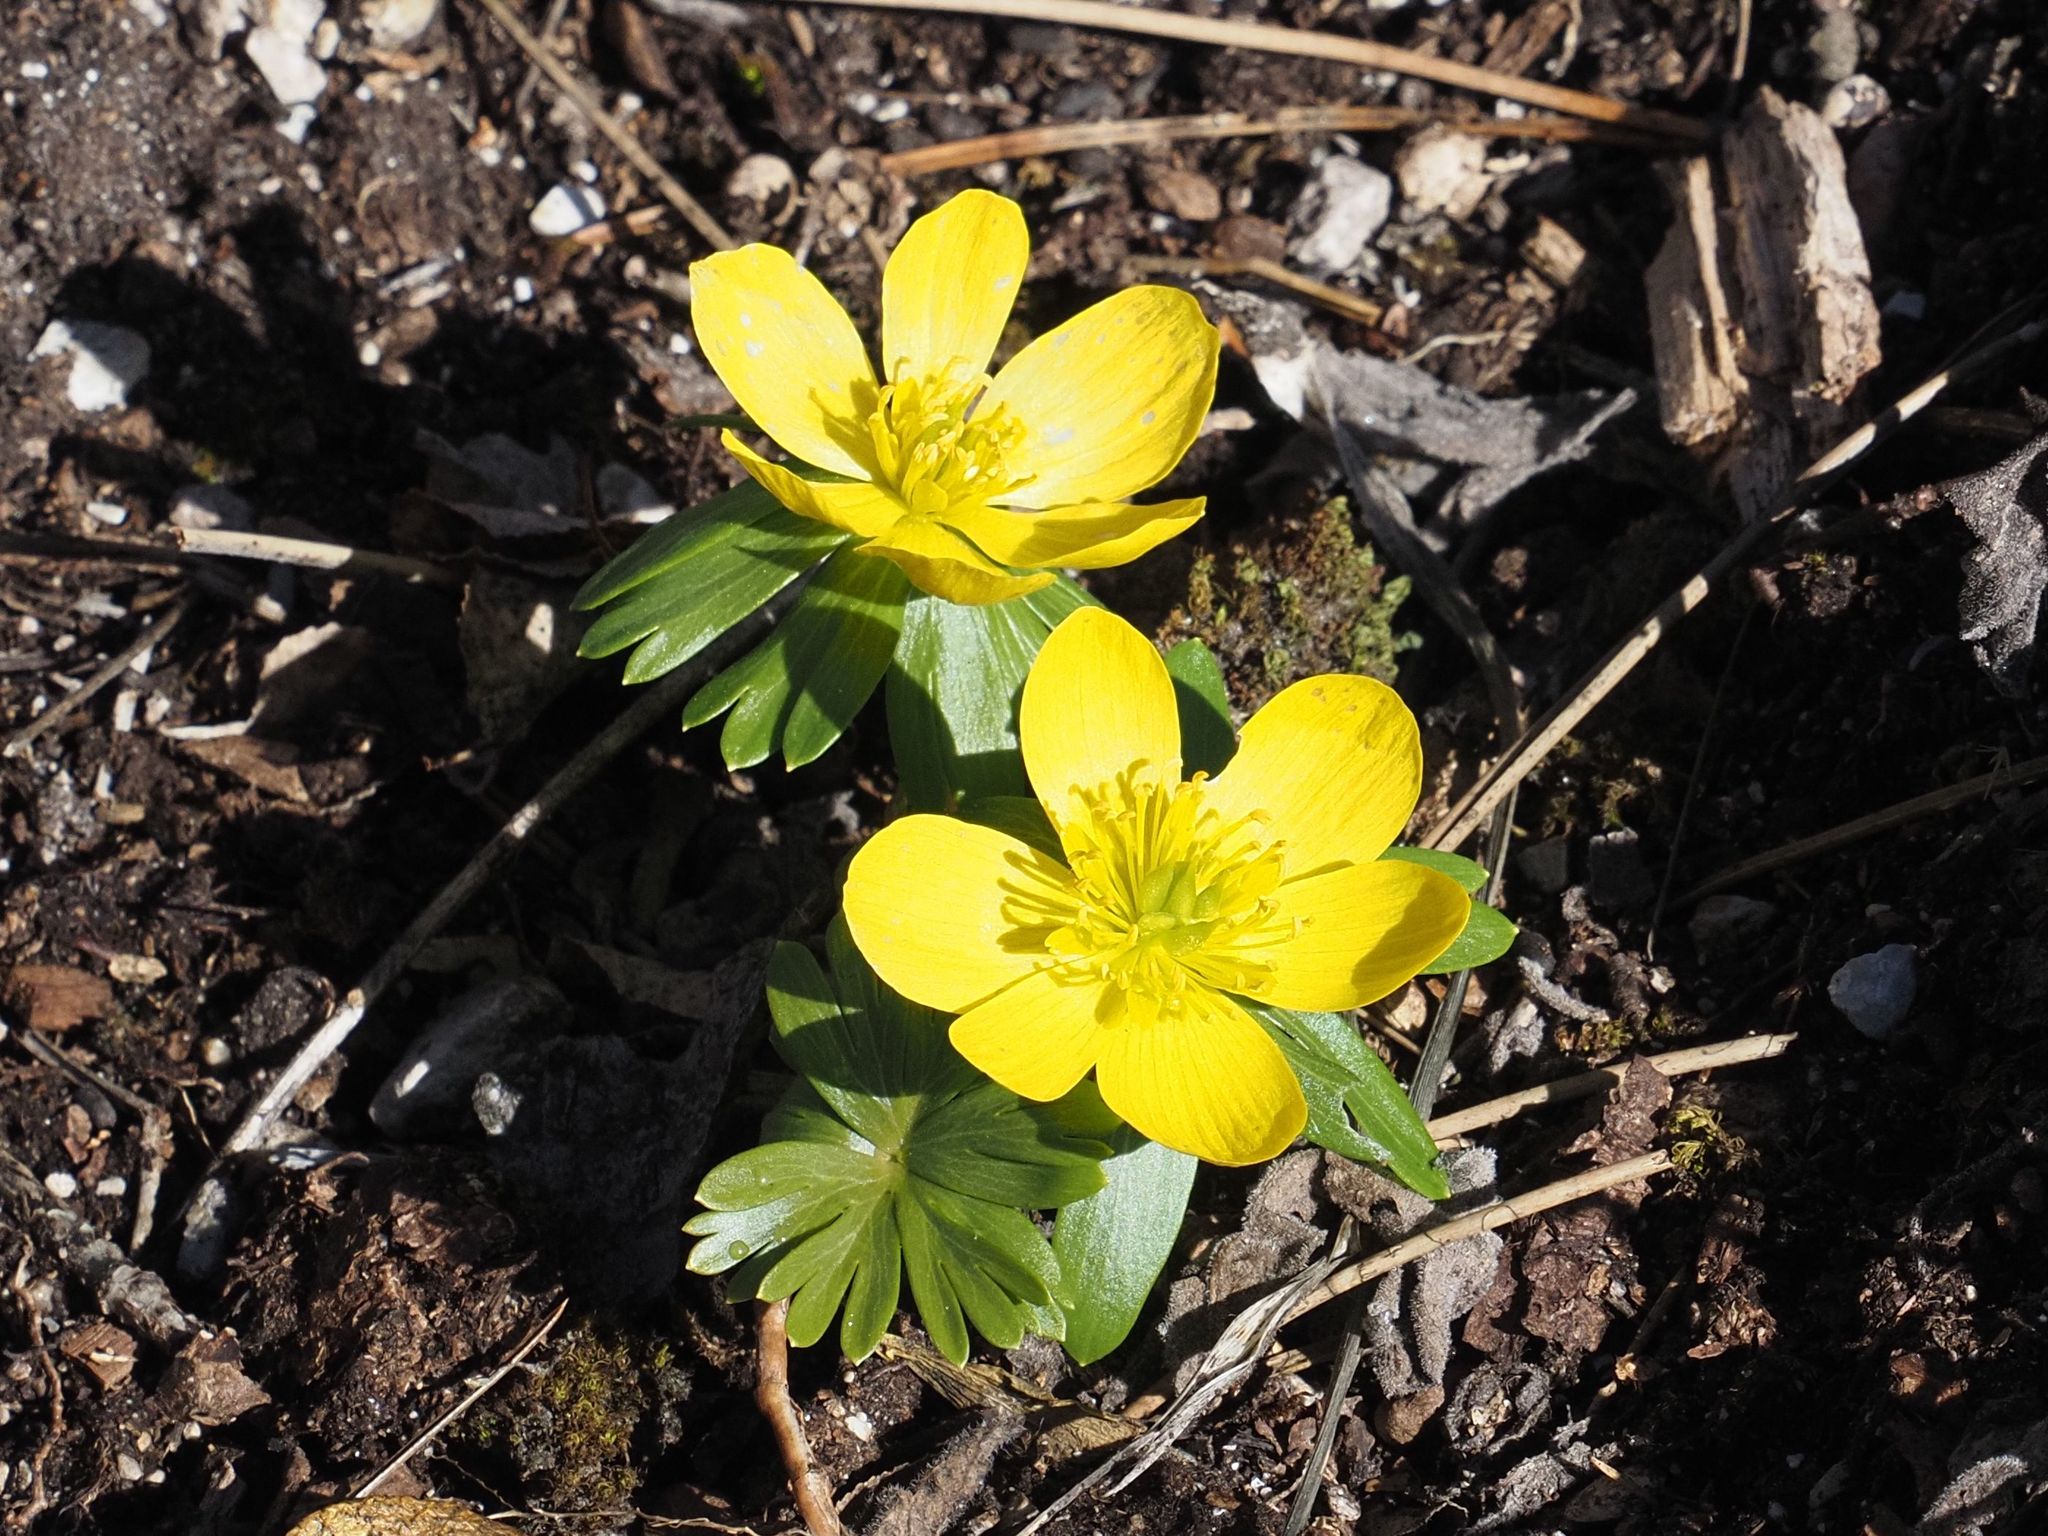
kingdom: Plantae
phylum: Tracheophyta
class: Magnoliopsida
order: Ranunculales
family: Ranunculaceae
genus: Eranthis
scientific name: Eranthis hyemalis
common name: Winter aconite
